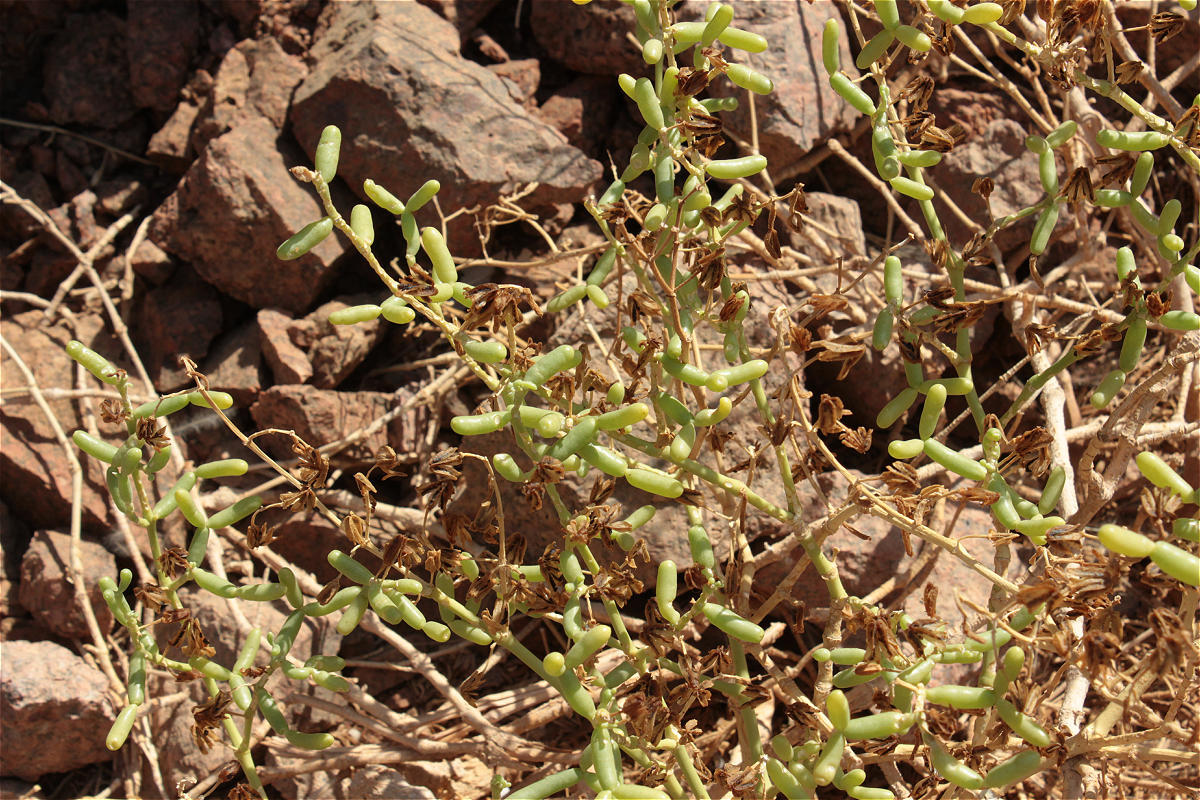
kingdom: Plantae
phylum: Tracheophyta
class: Magnoliopsida
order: Zygophyllales
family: Zygophyllaceae
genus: Tetraena
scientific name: Tetraena coccinea
